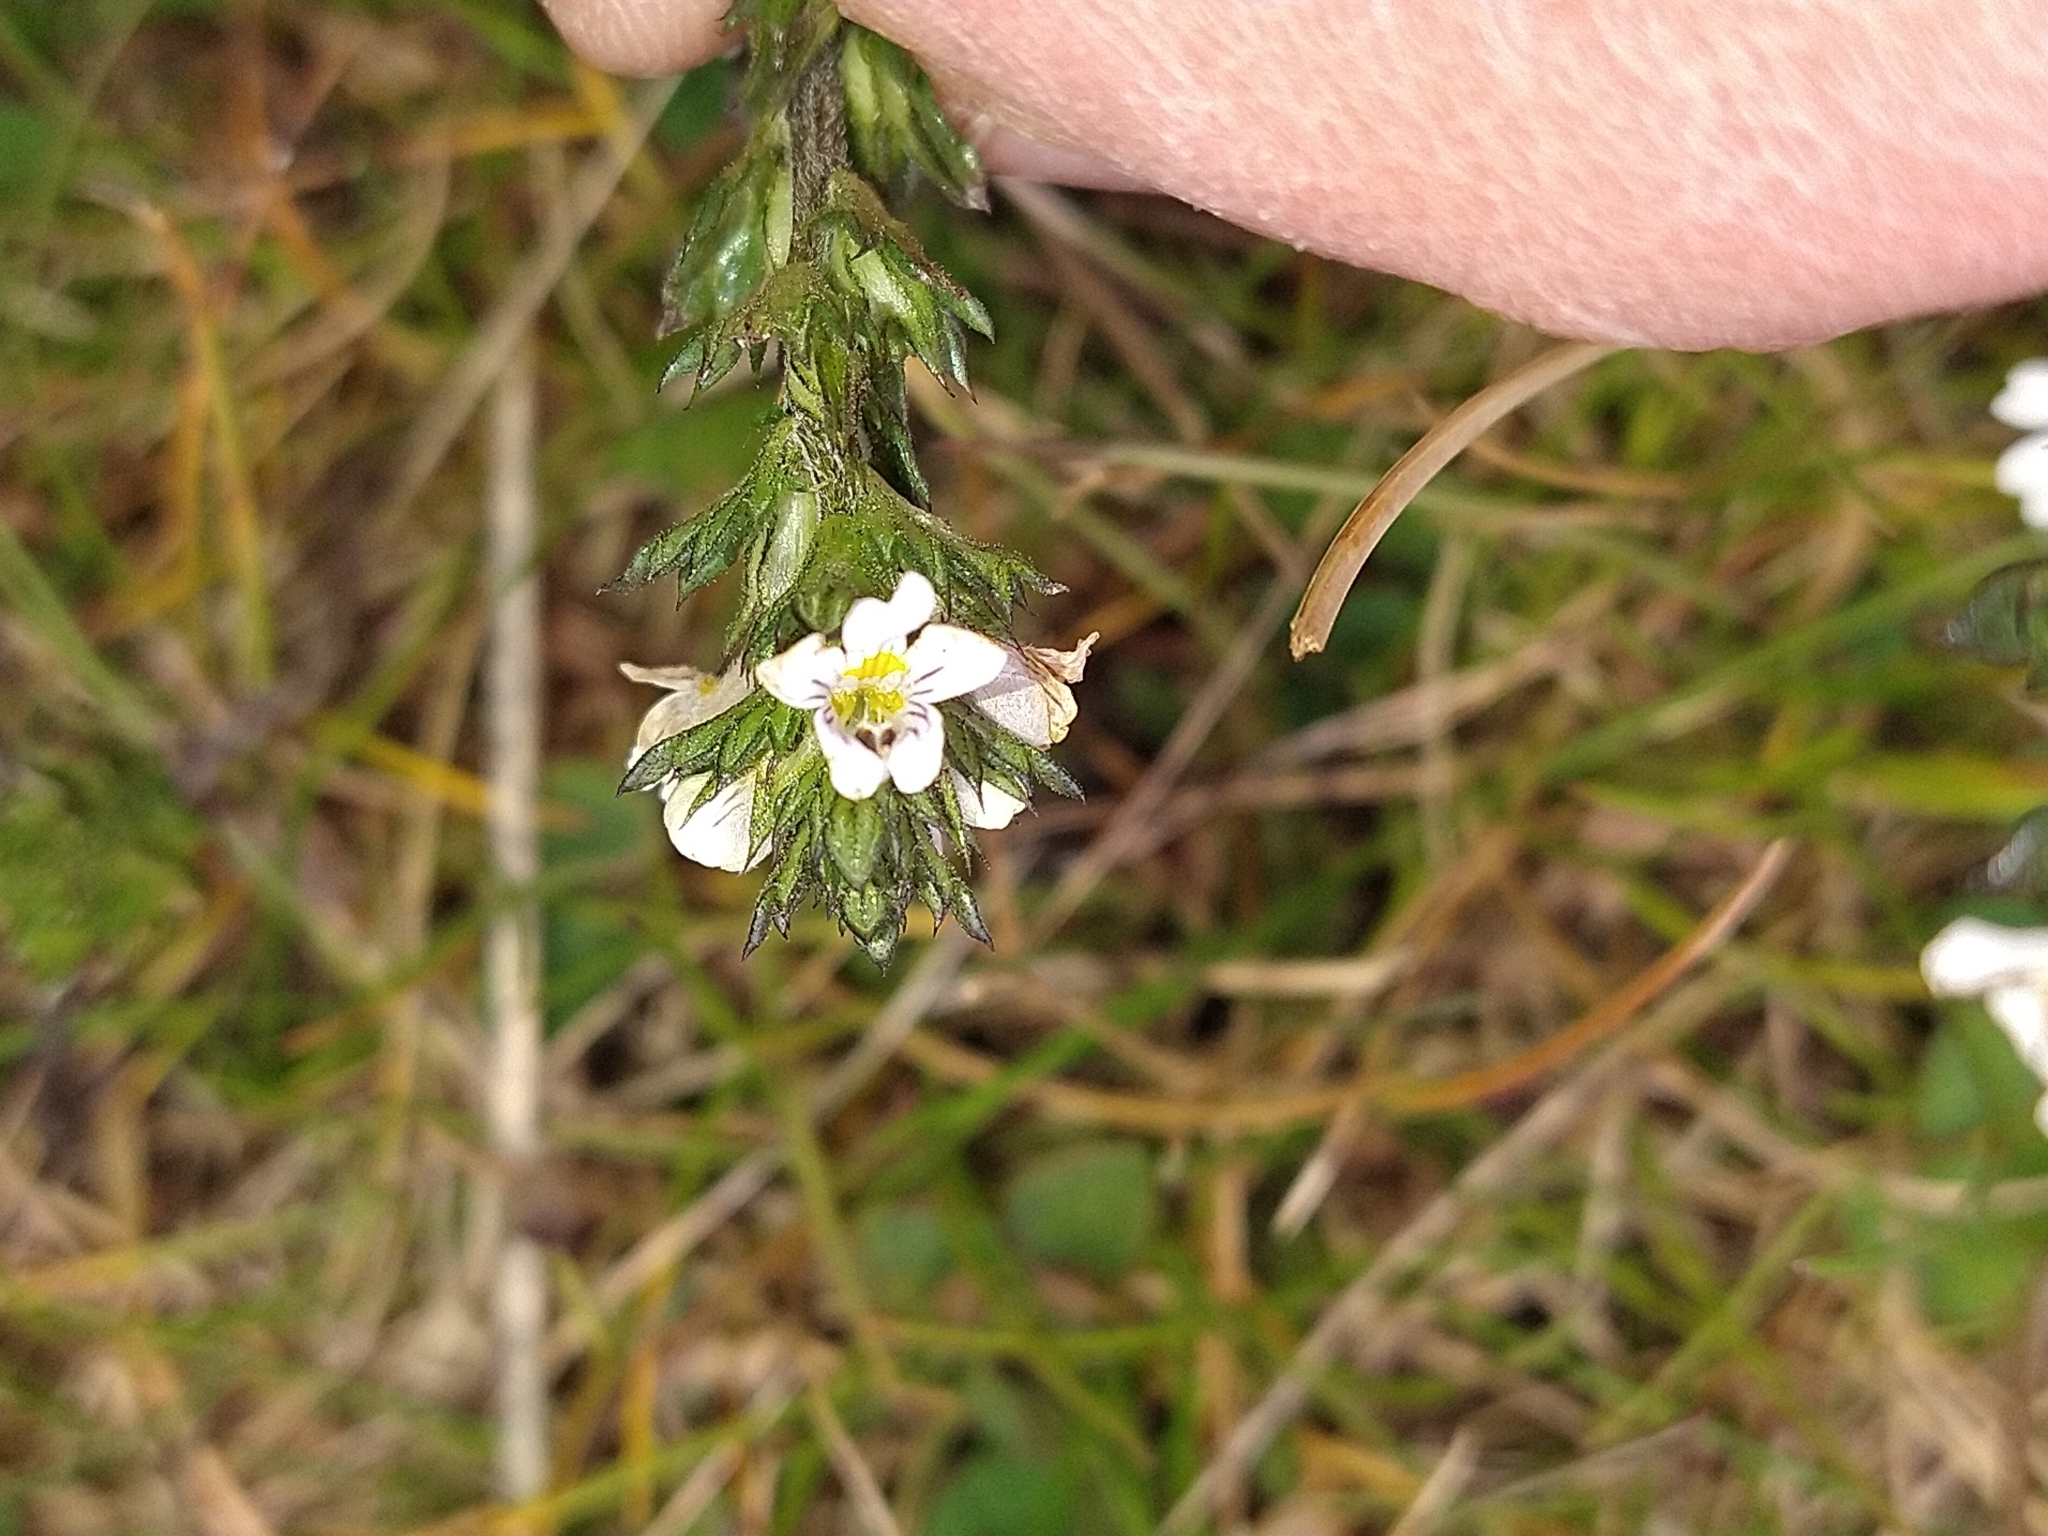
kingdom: Plantae
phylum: Tracheophyta
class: Magnoliopsida
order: Lamiales
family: Orobanchaceae
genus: Euphrasia
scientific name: Euphrasia officinalis
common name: Eyebright
